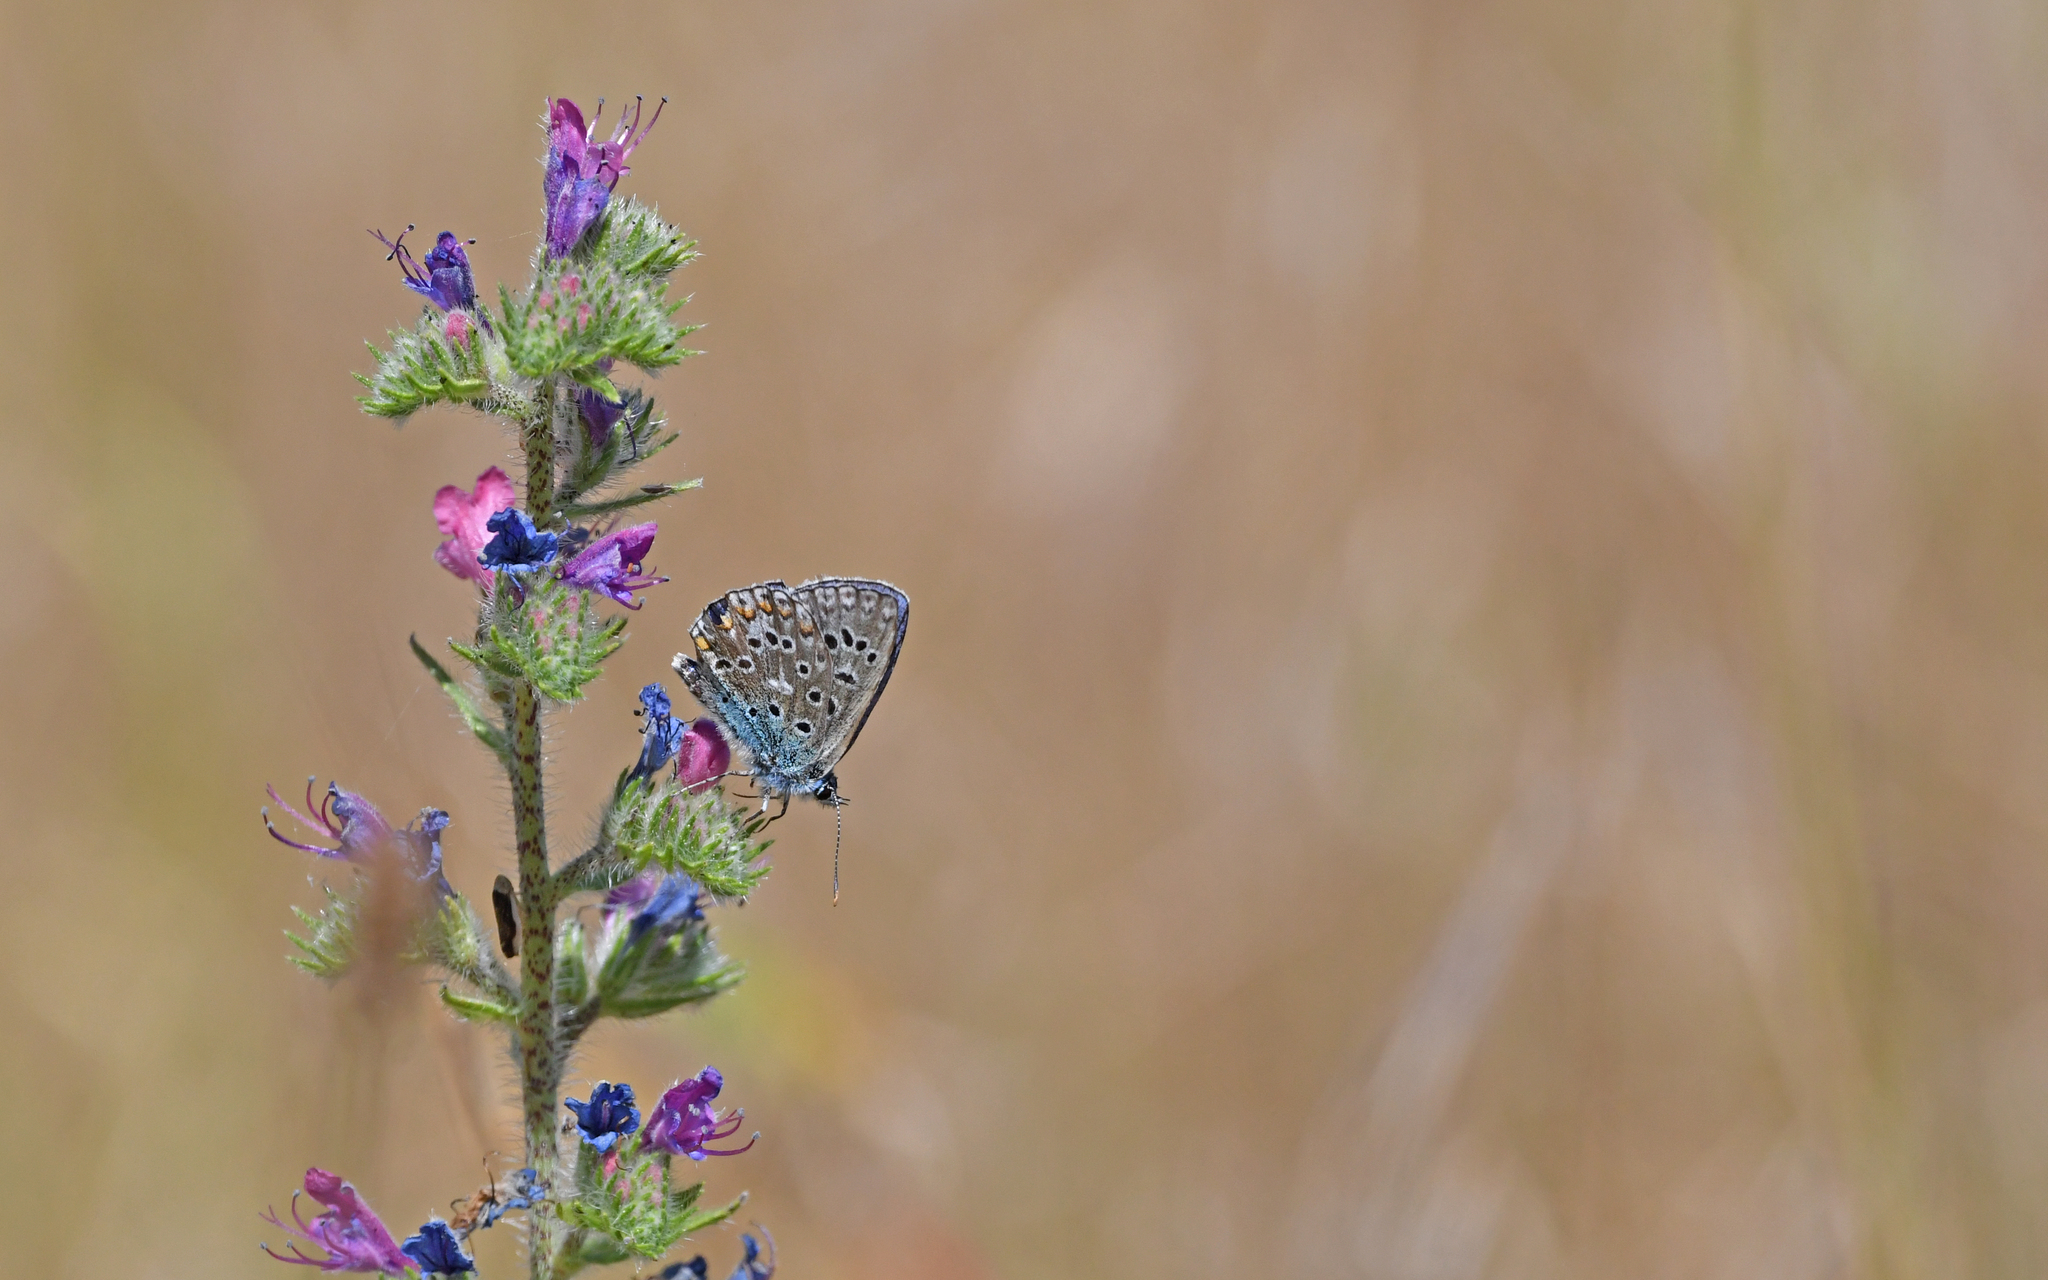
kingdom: Animalia
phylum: Arthropoda
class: Insecta
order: Lepidoptera
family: Lycaenidae
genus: Polyommatus
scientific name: Polyommatus icarus
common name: Common blue
